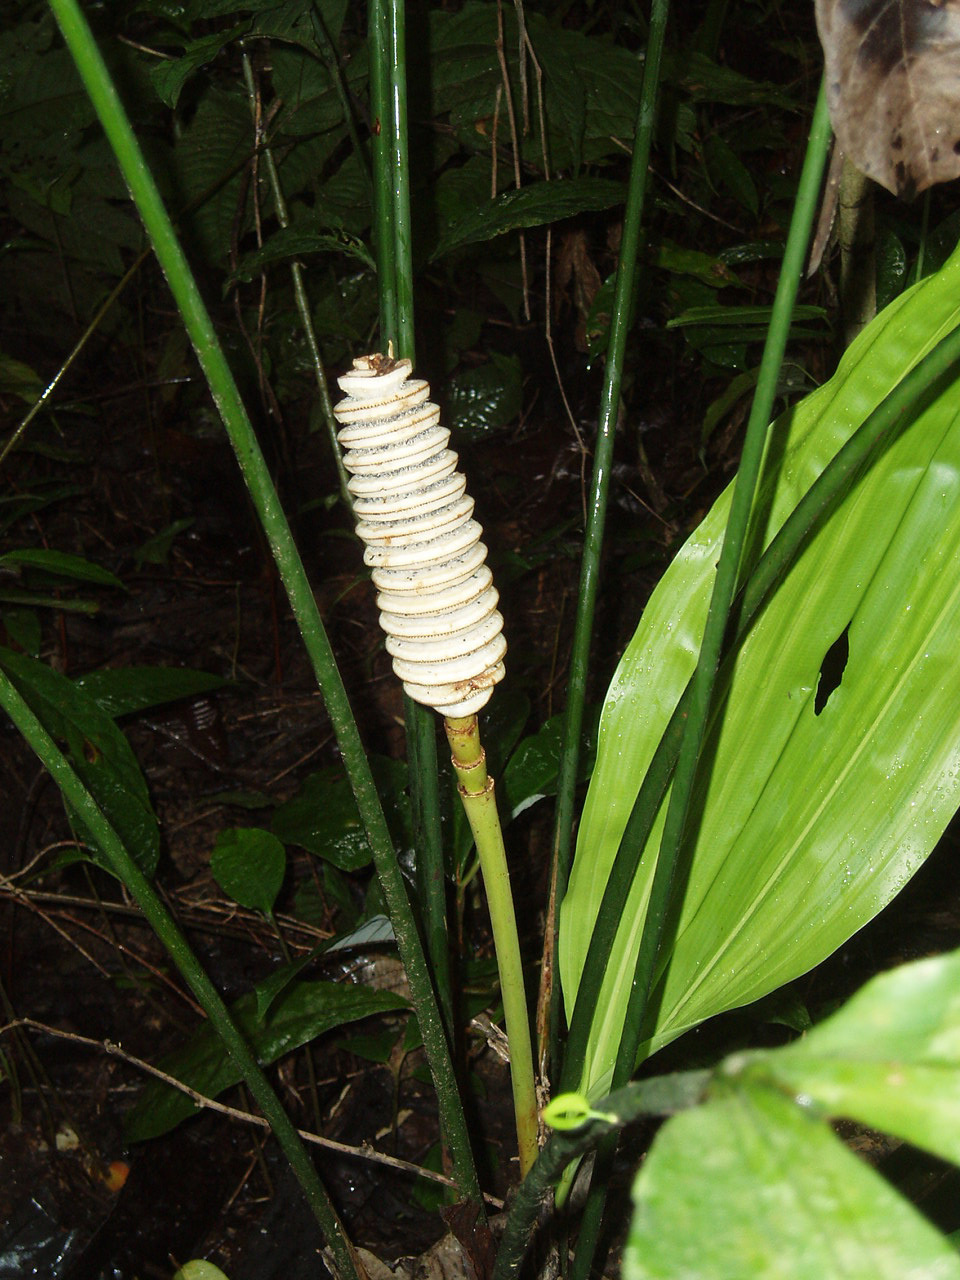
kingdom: Plantae
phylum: Tracheophyta
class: Liliopsida
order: Pandanales
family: Cyclanthaceae
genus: Cyclanthus
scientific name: Cyclanthus bipartitus
